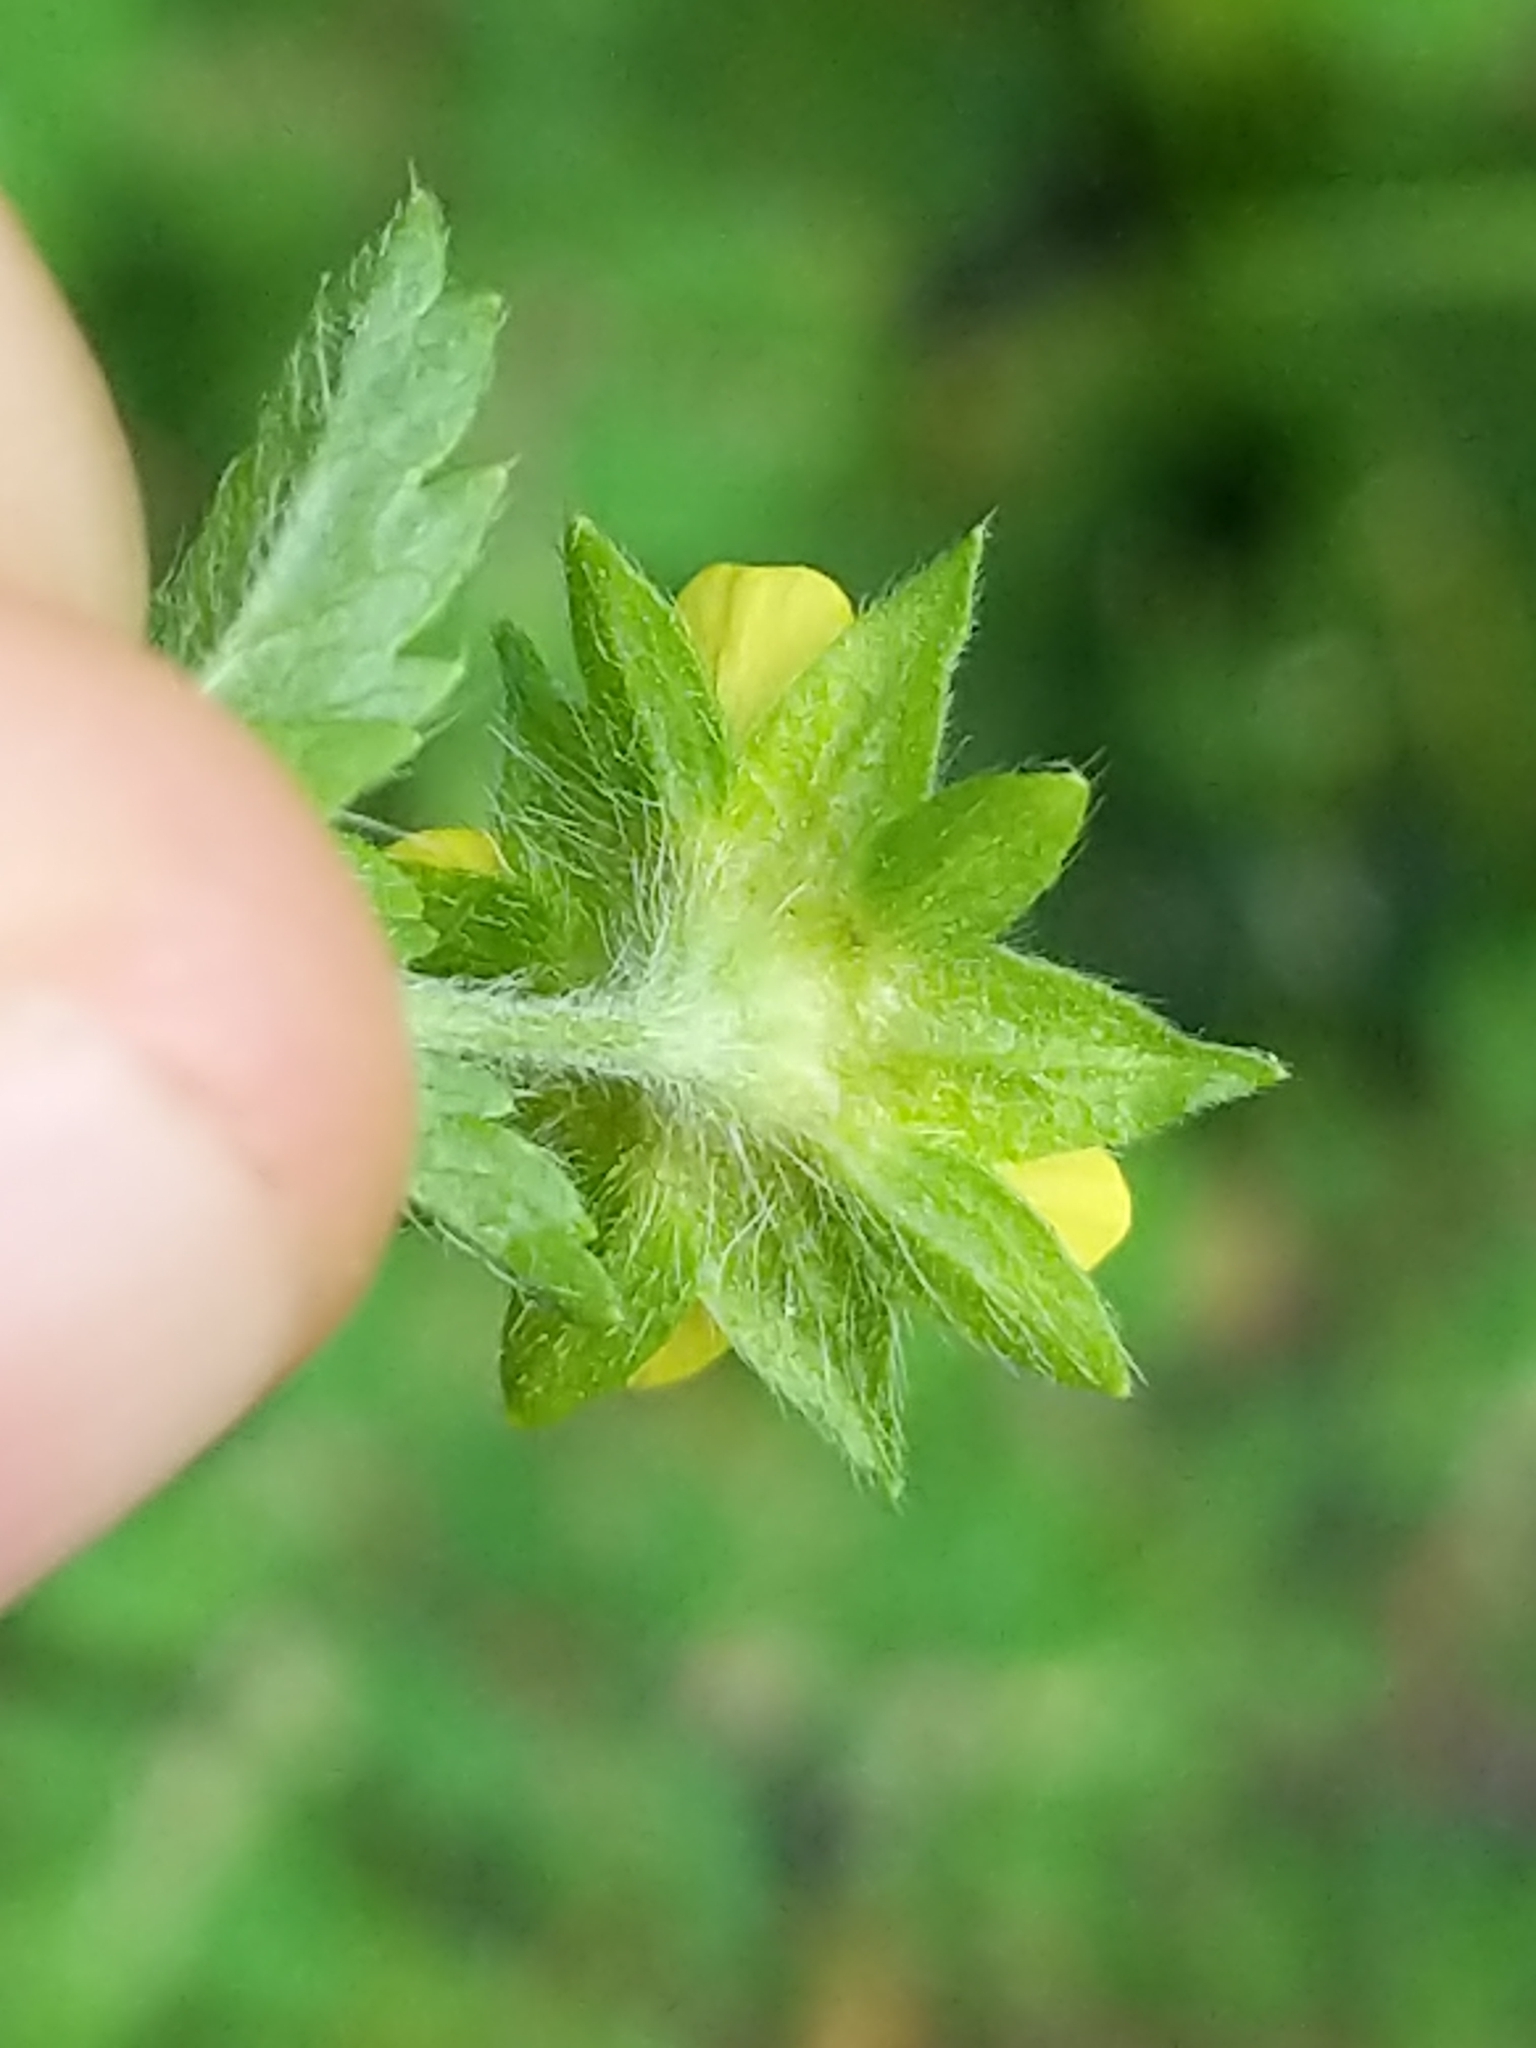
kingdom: Plantae
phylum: Tracheophyta
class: Magnoliopsida
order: Rosales
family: Rosaceae
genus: Potentilla
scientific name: Potentilla norvegica
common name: Ternate-leaved cinquefoil
